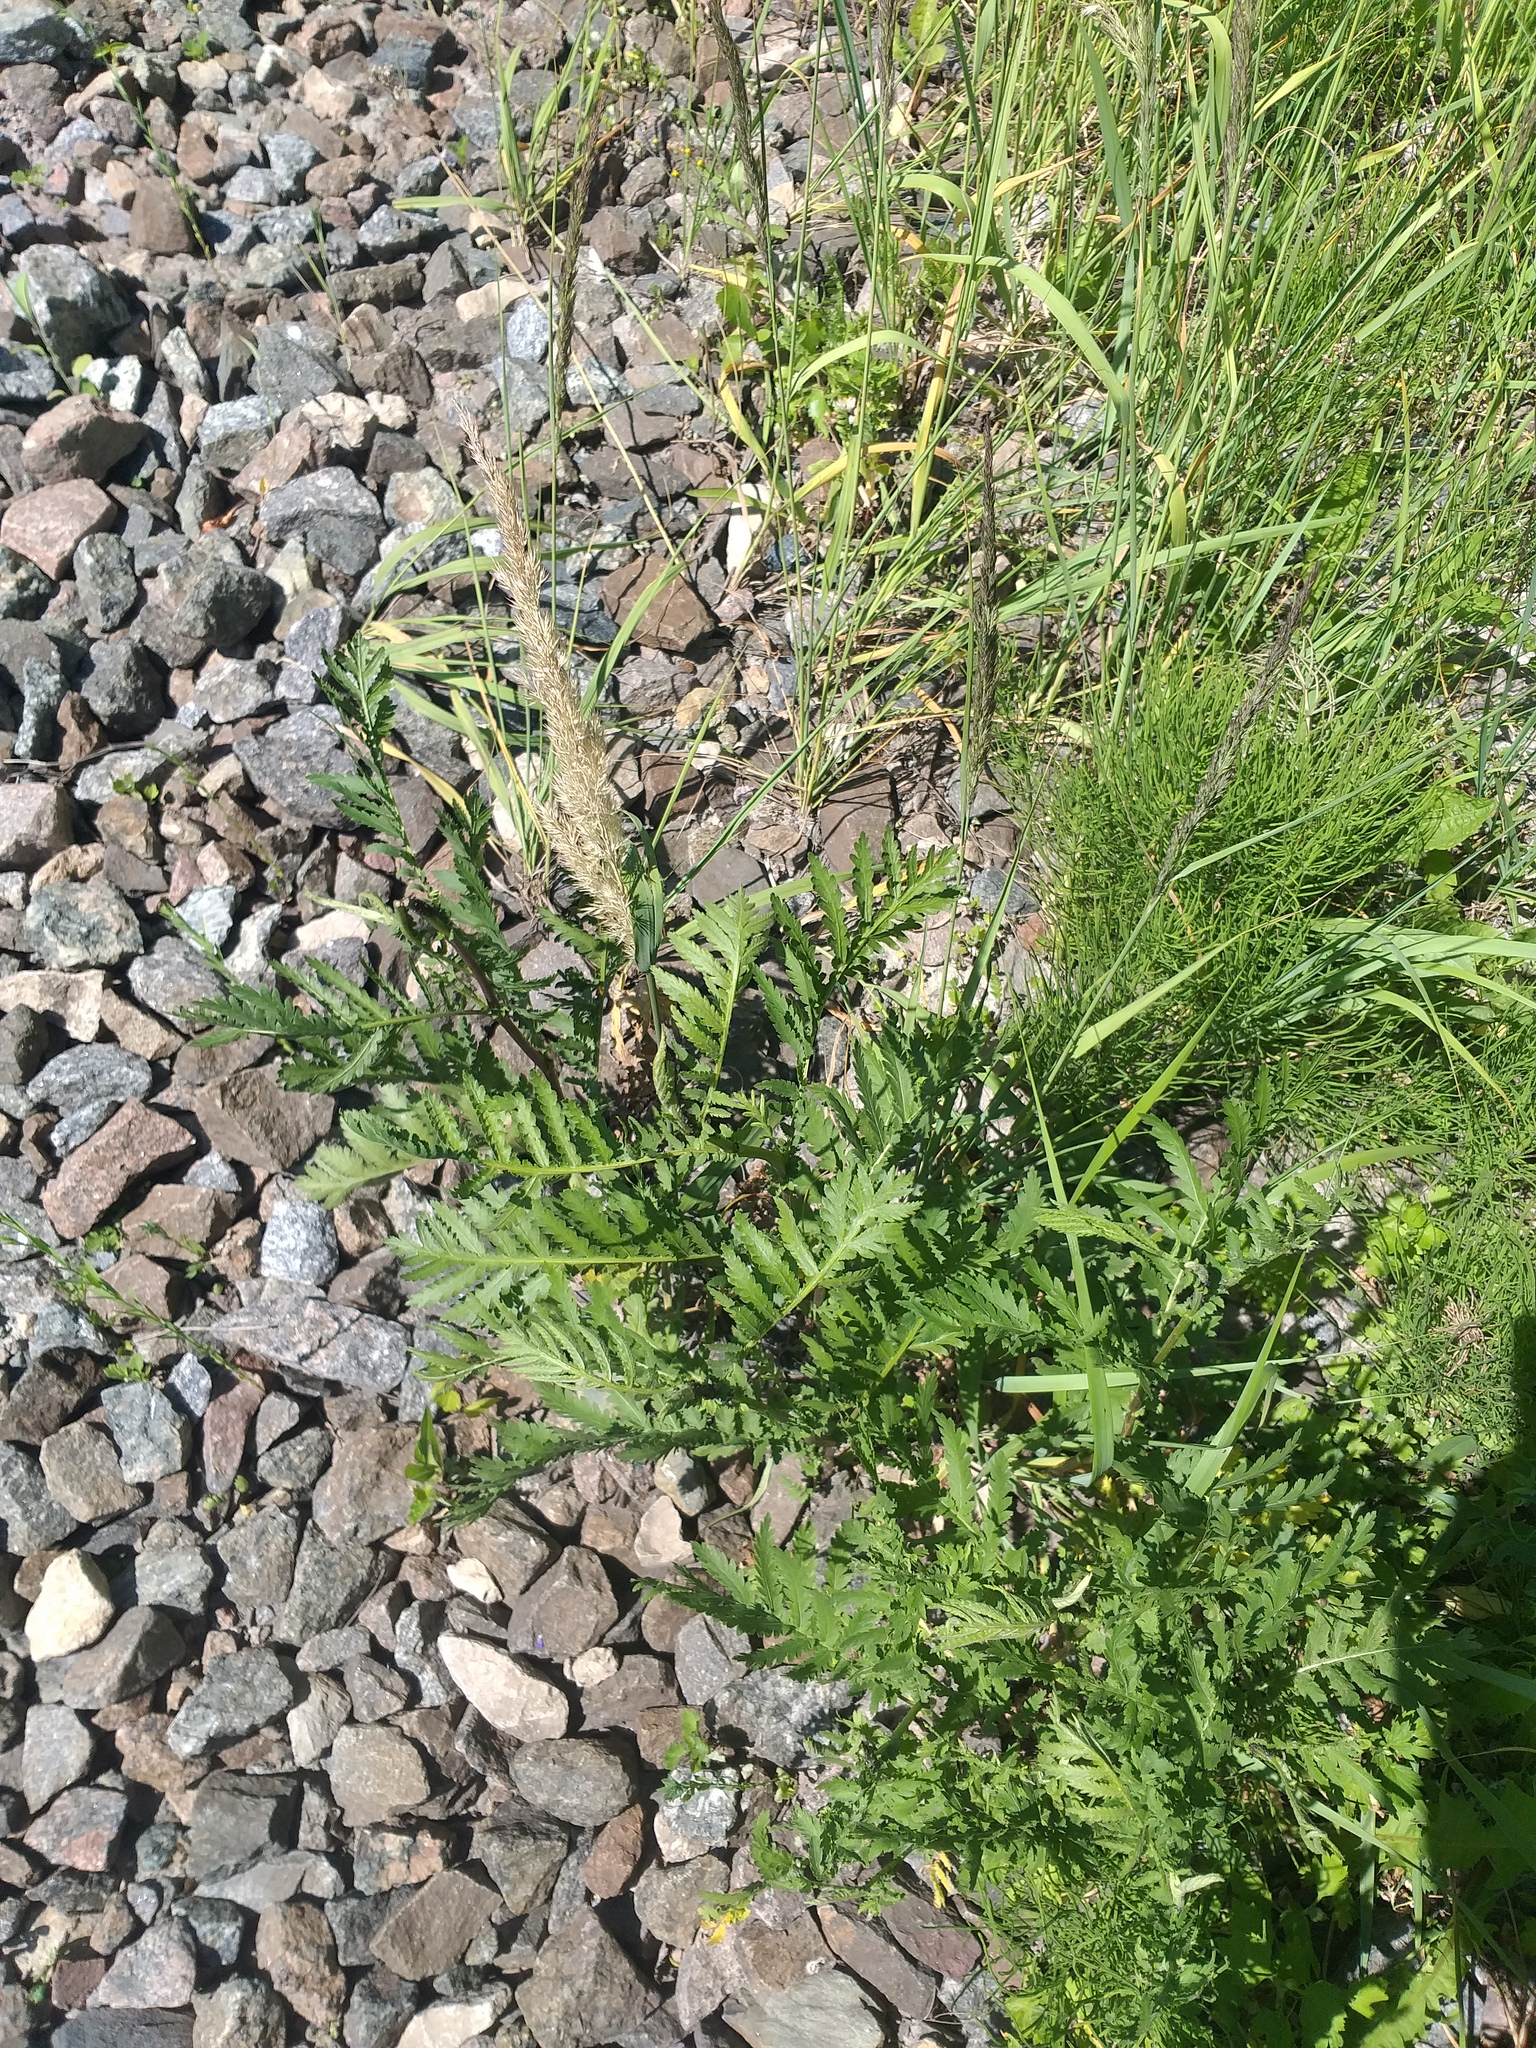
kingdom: Plantae
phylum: Tracheophyta
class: Magnoliopsida
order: Asterales
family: Asteraceae
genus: Tanacetum
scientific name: Tanacetum vulgare
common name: Common tansy
